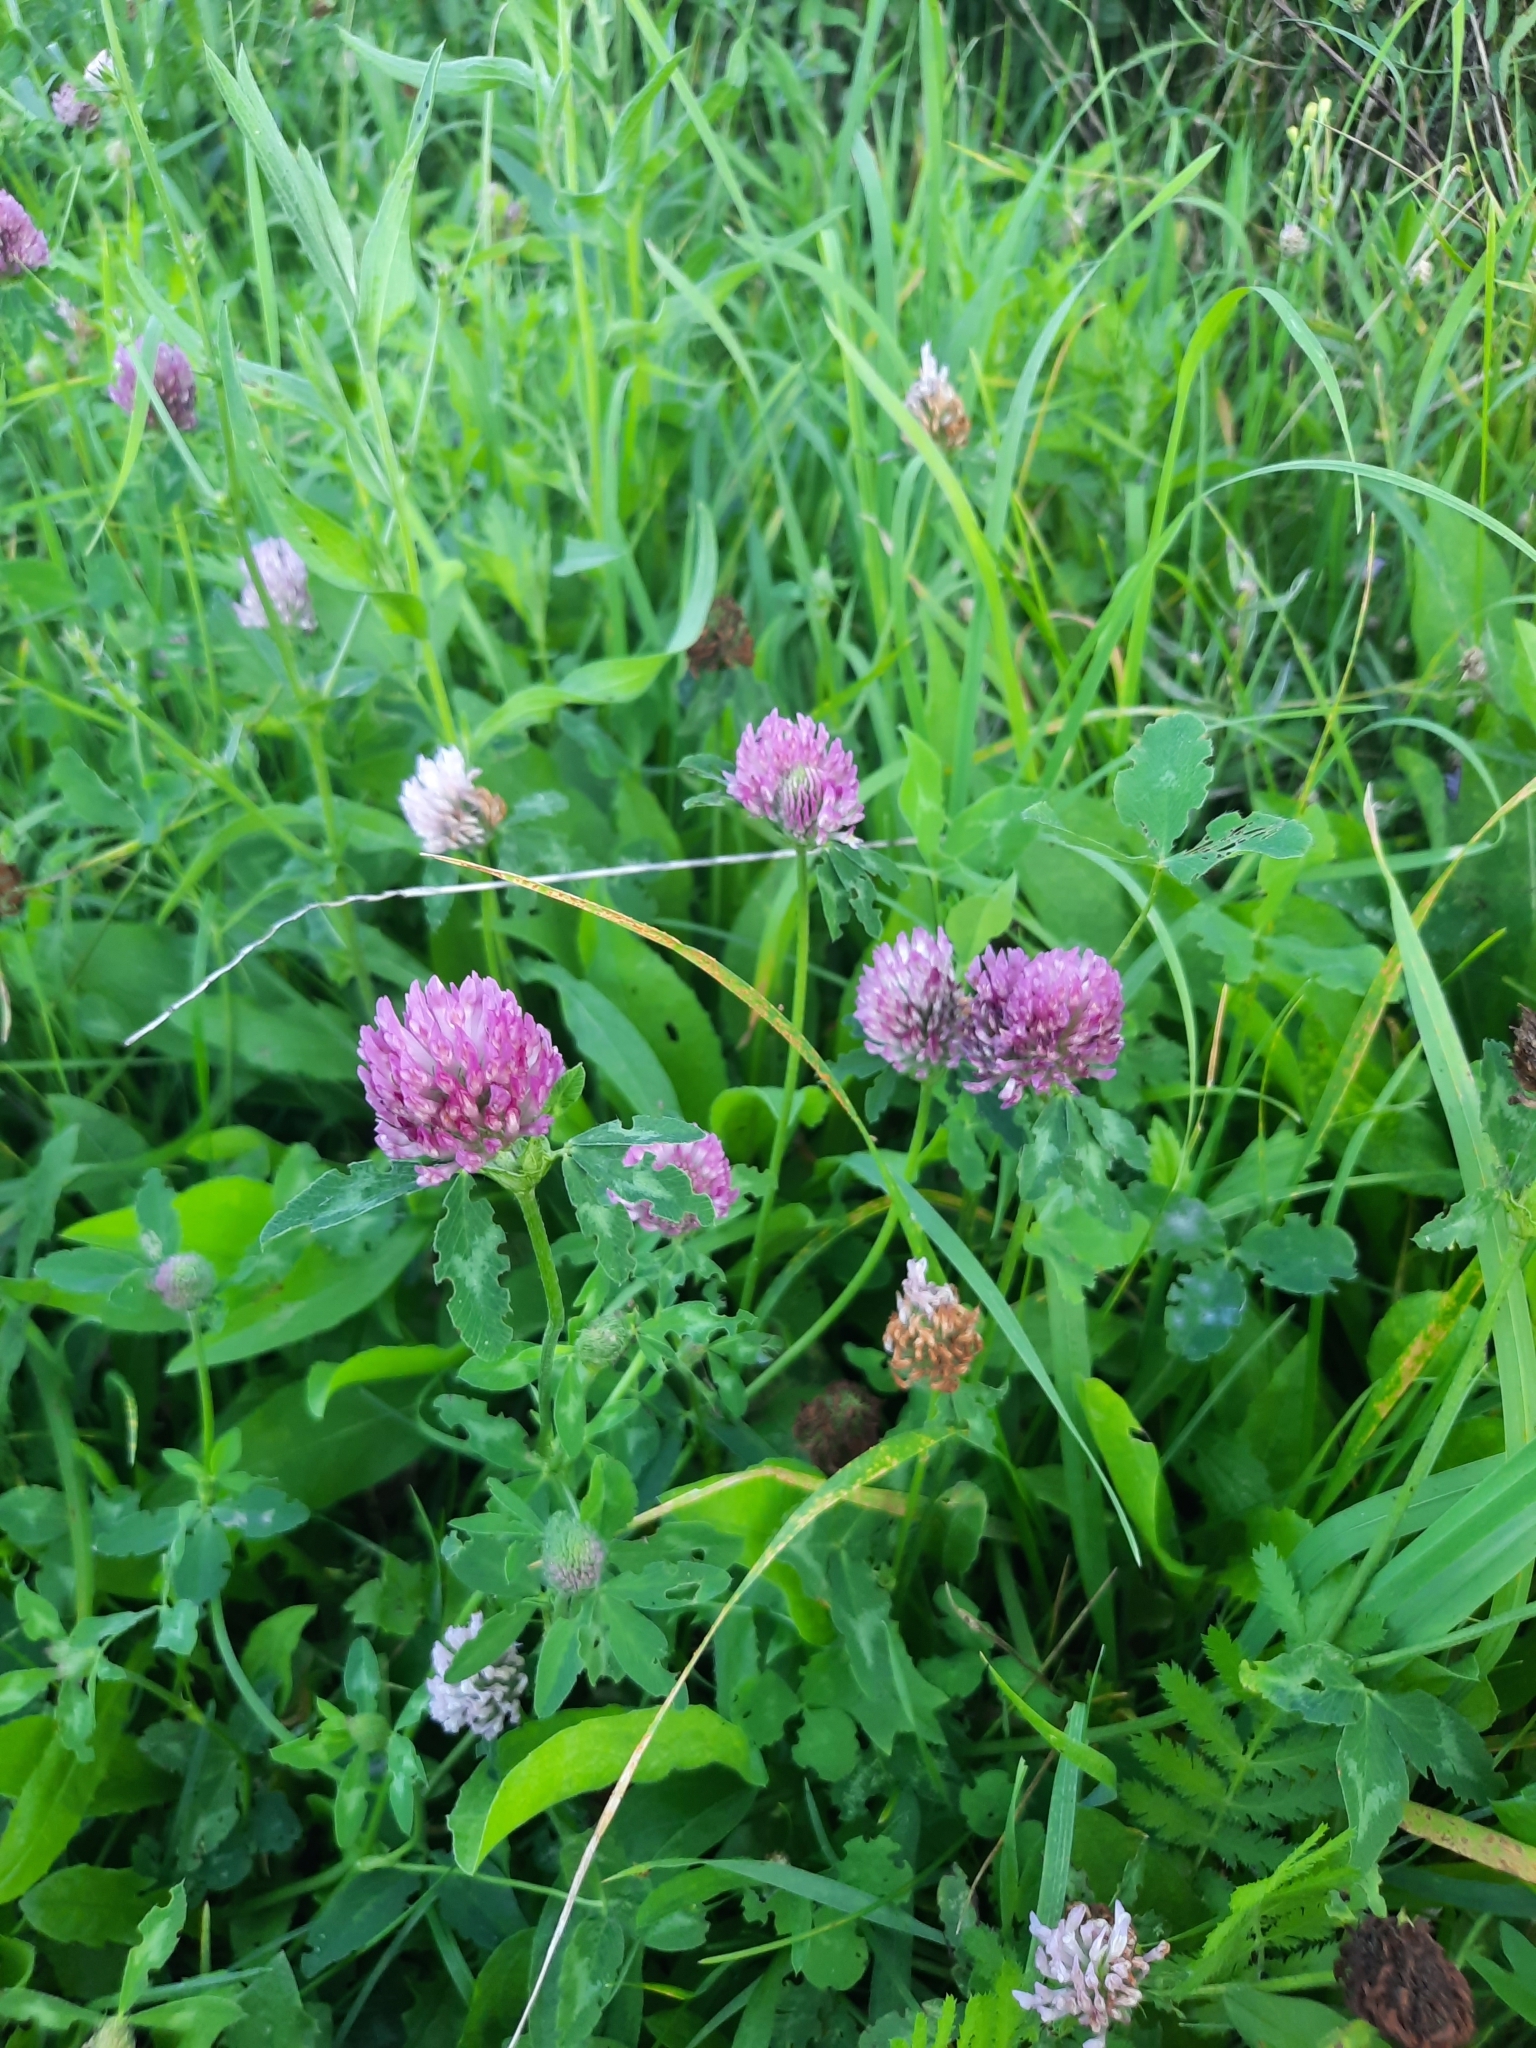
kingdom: Plantae
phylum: Tracheophyta
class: Magnoliopsida
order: Fabales
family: Fabaceae
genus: Trifolium
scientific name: Trifolium pratense
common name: Red clover
